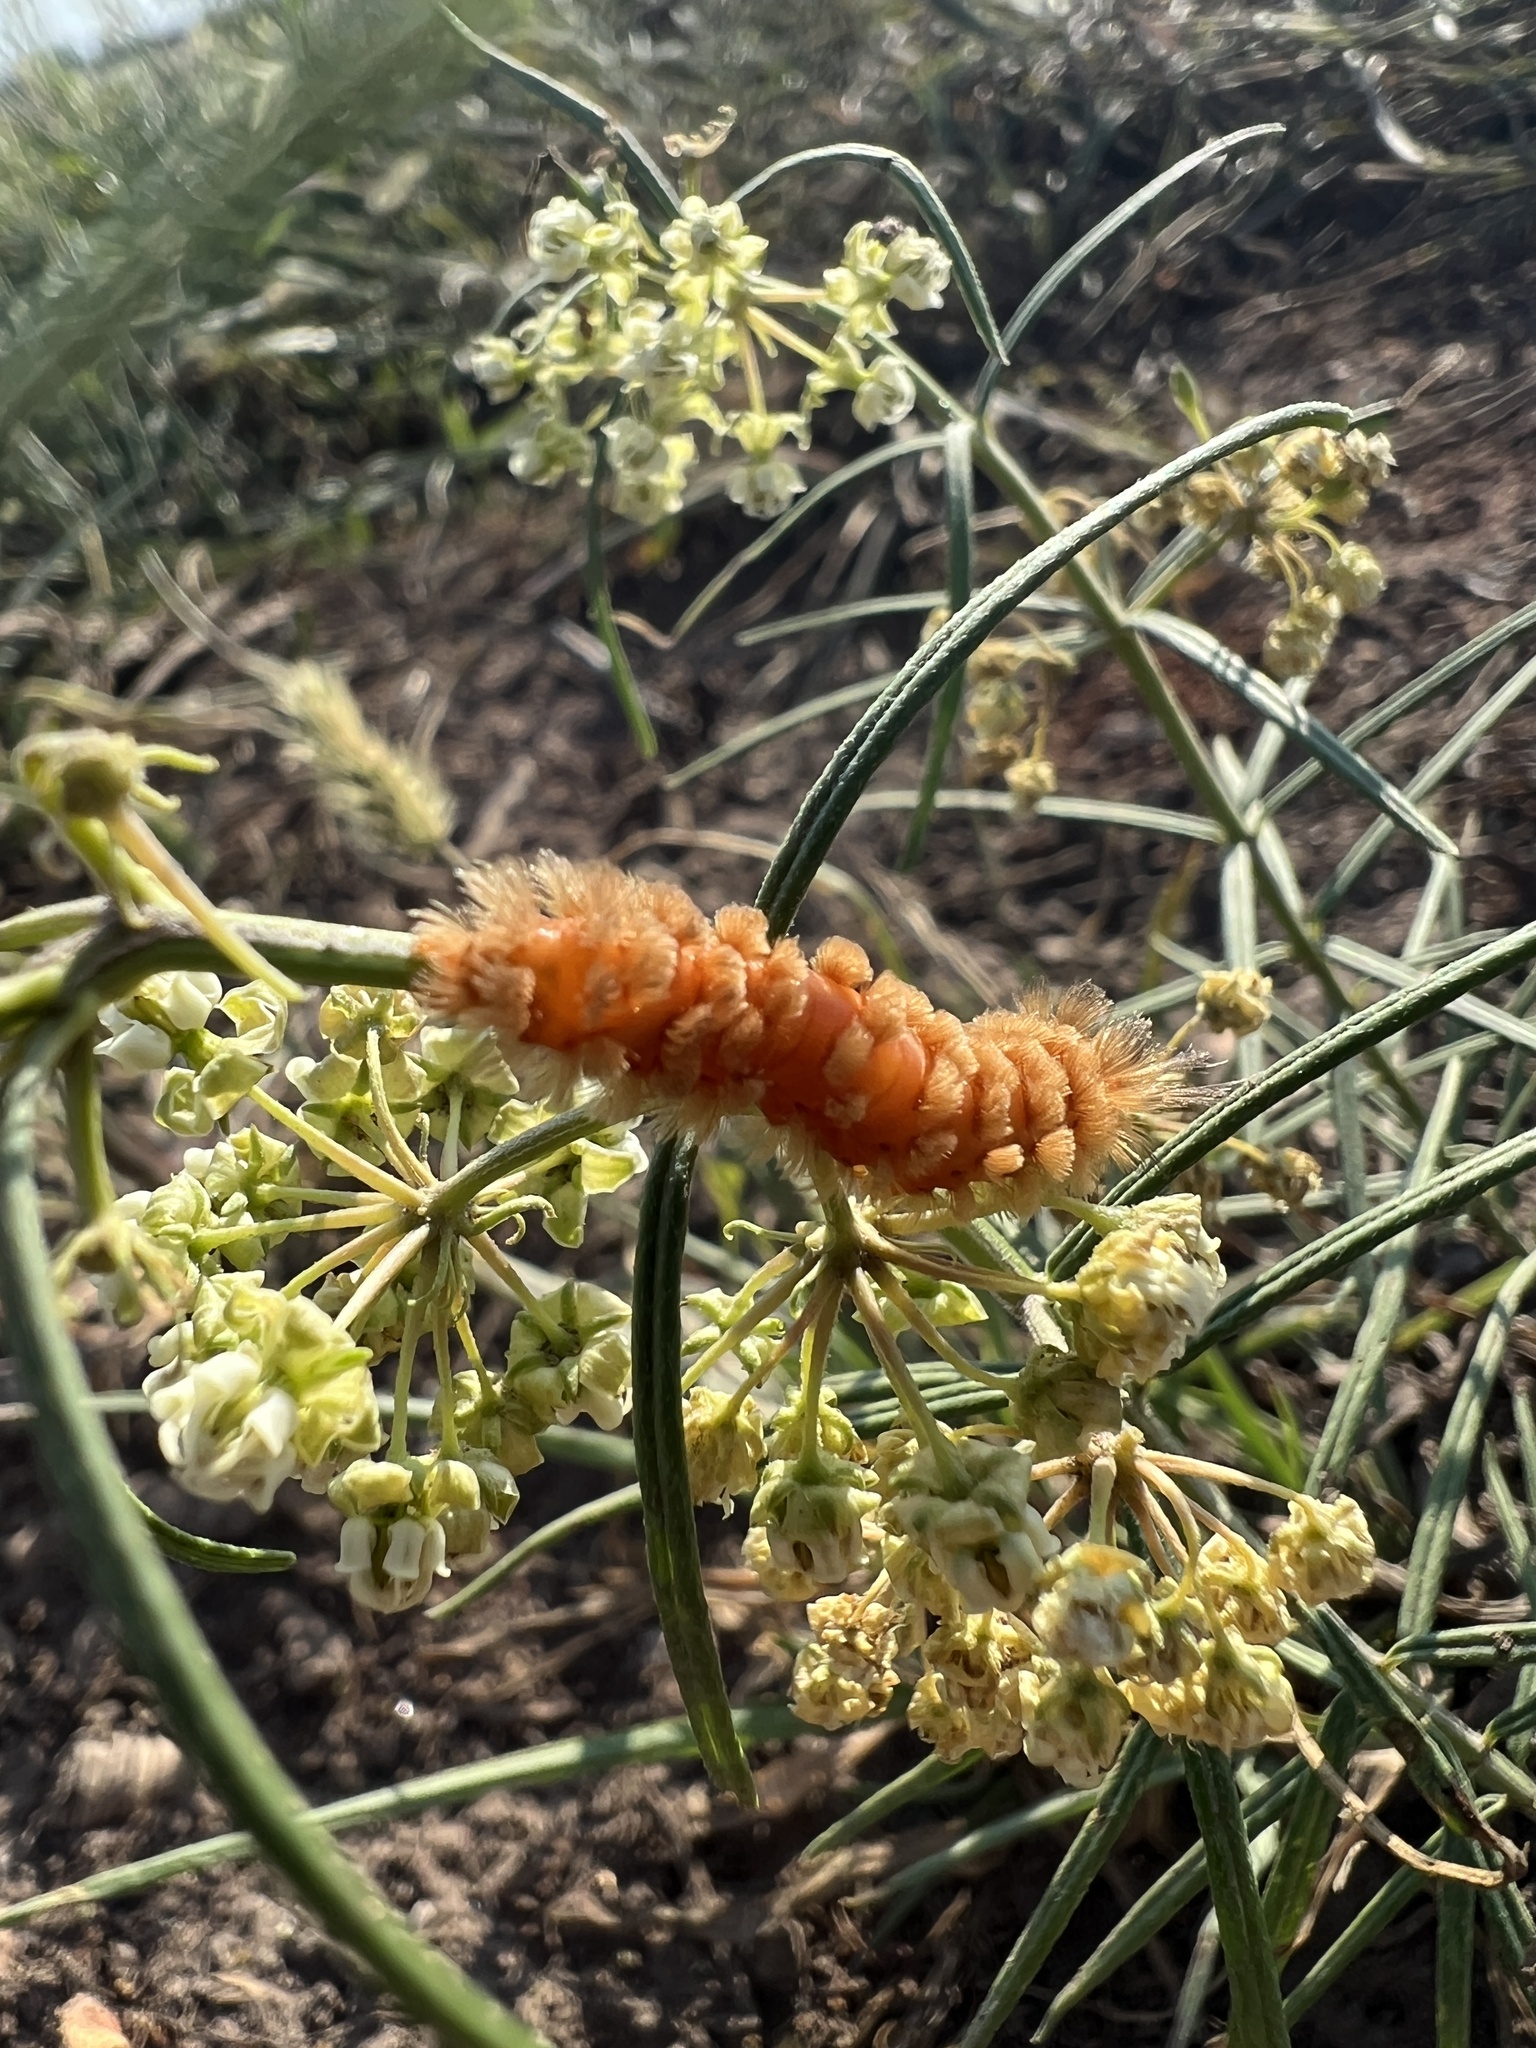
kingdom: Animalia
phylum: Arthropoda
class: Insecta
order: Lepidoptera
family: Erebidae
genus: Cycnia
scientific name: Cycnia collaris
